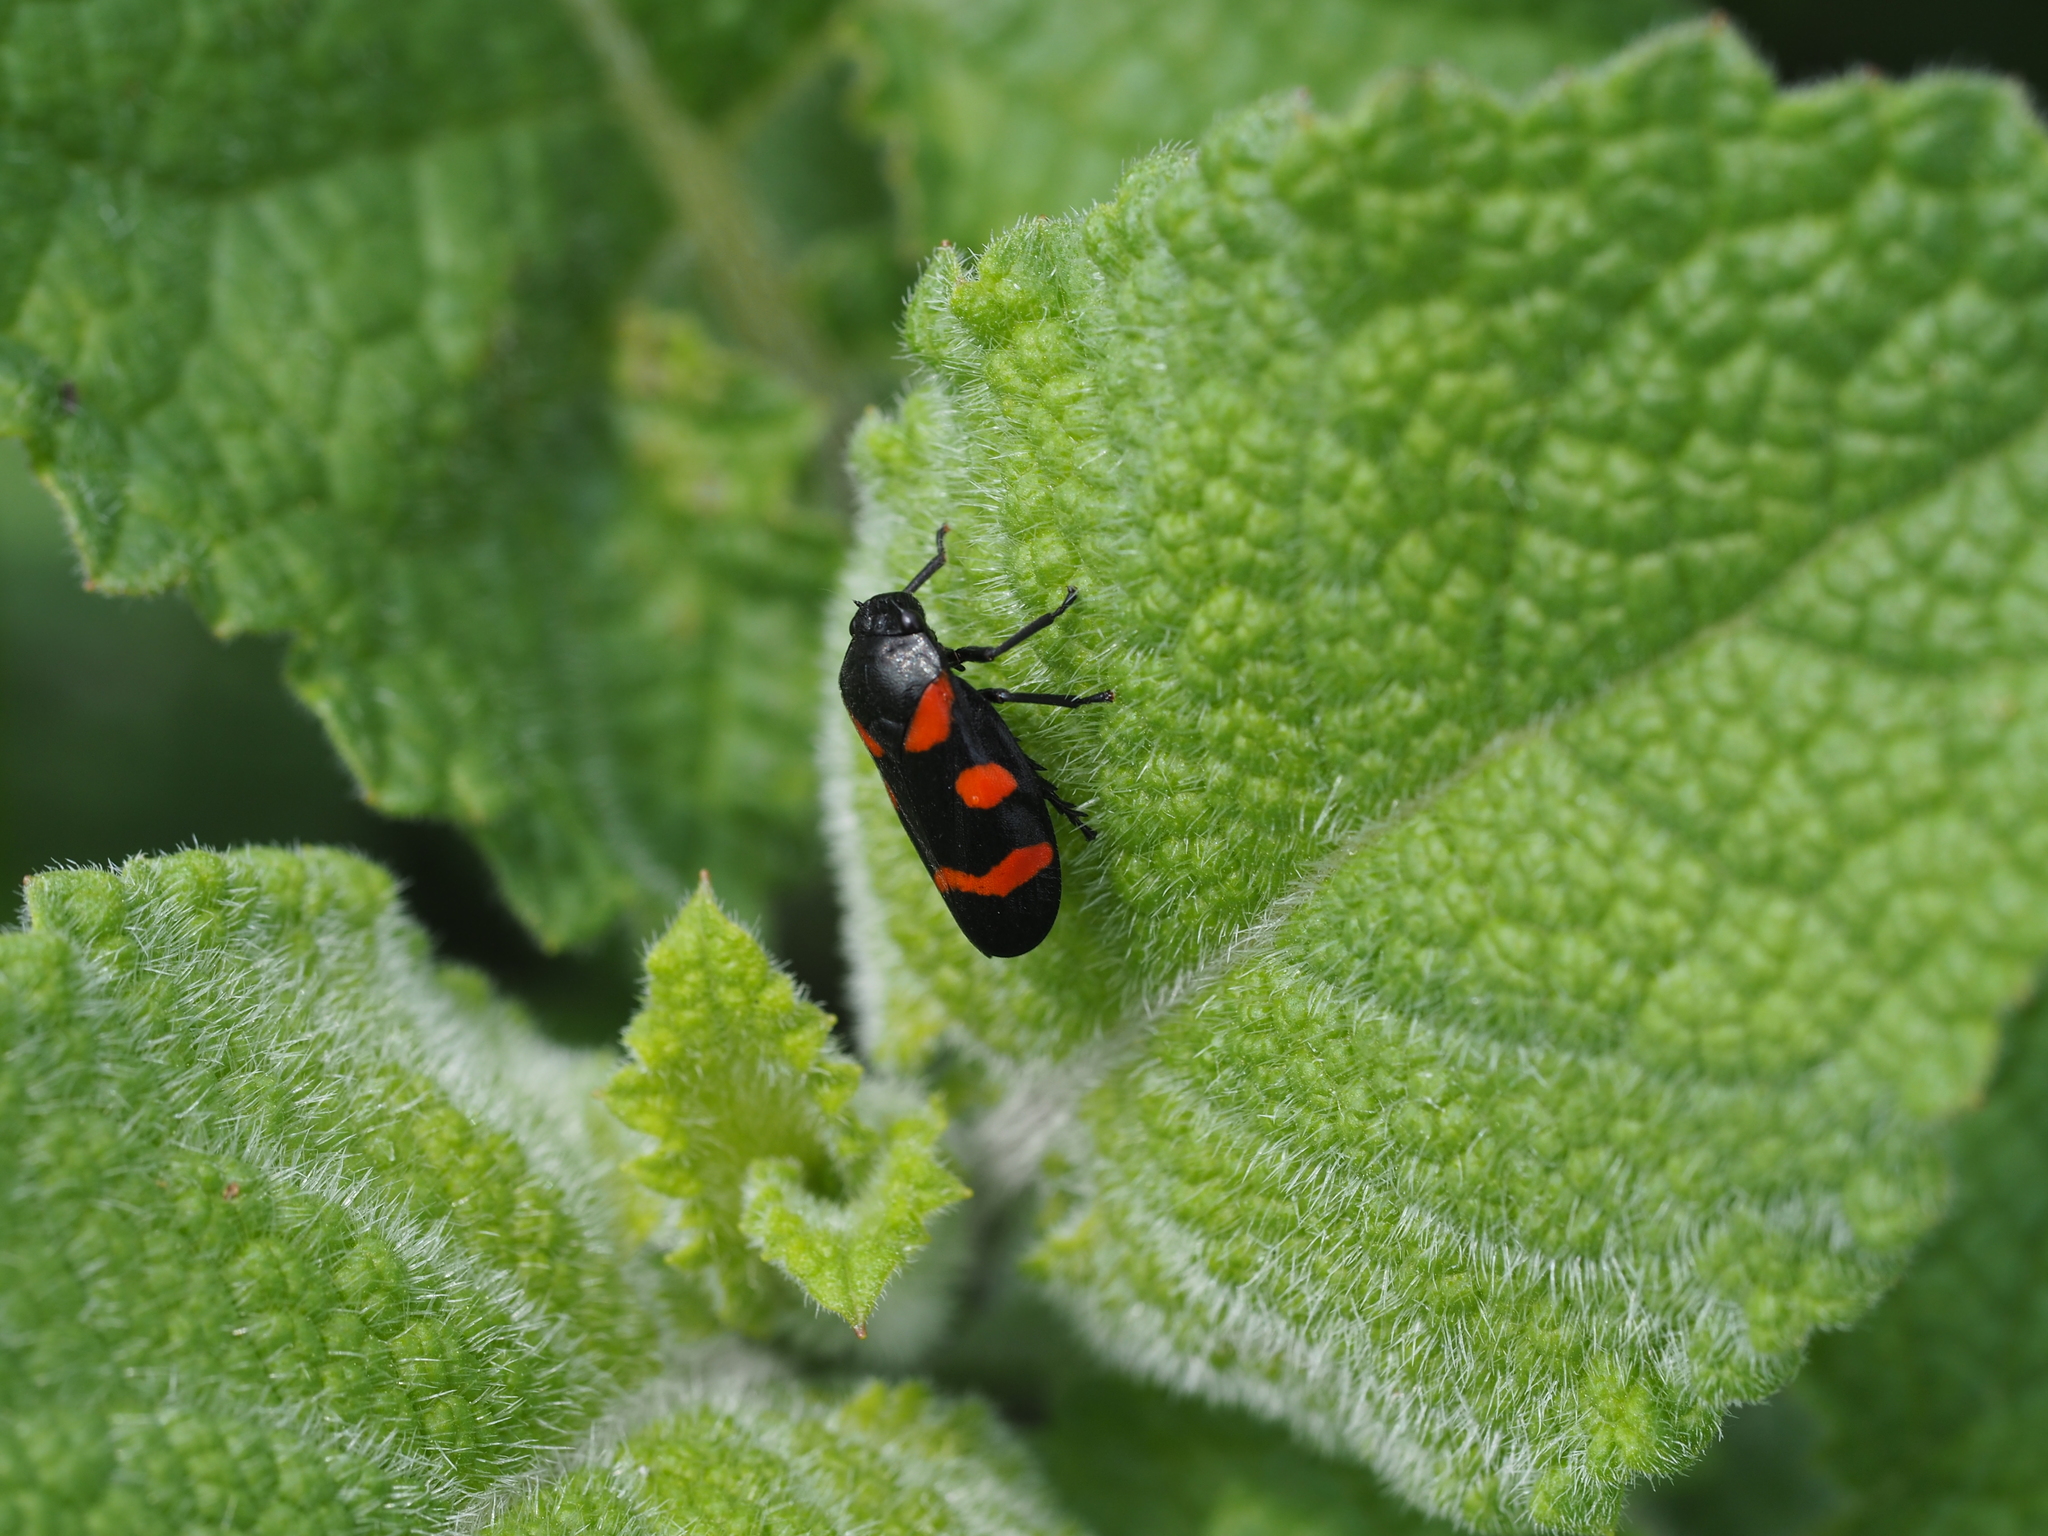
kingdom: Animalia
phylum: Arthropoda
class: Insecta
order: Hemiptera
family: Cercopidae
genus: Cercopis
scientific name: Cercopis sanguinolenta
